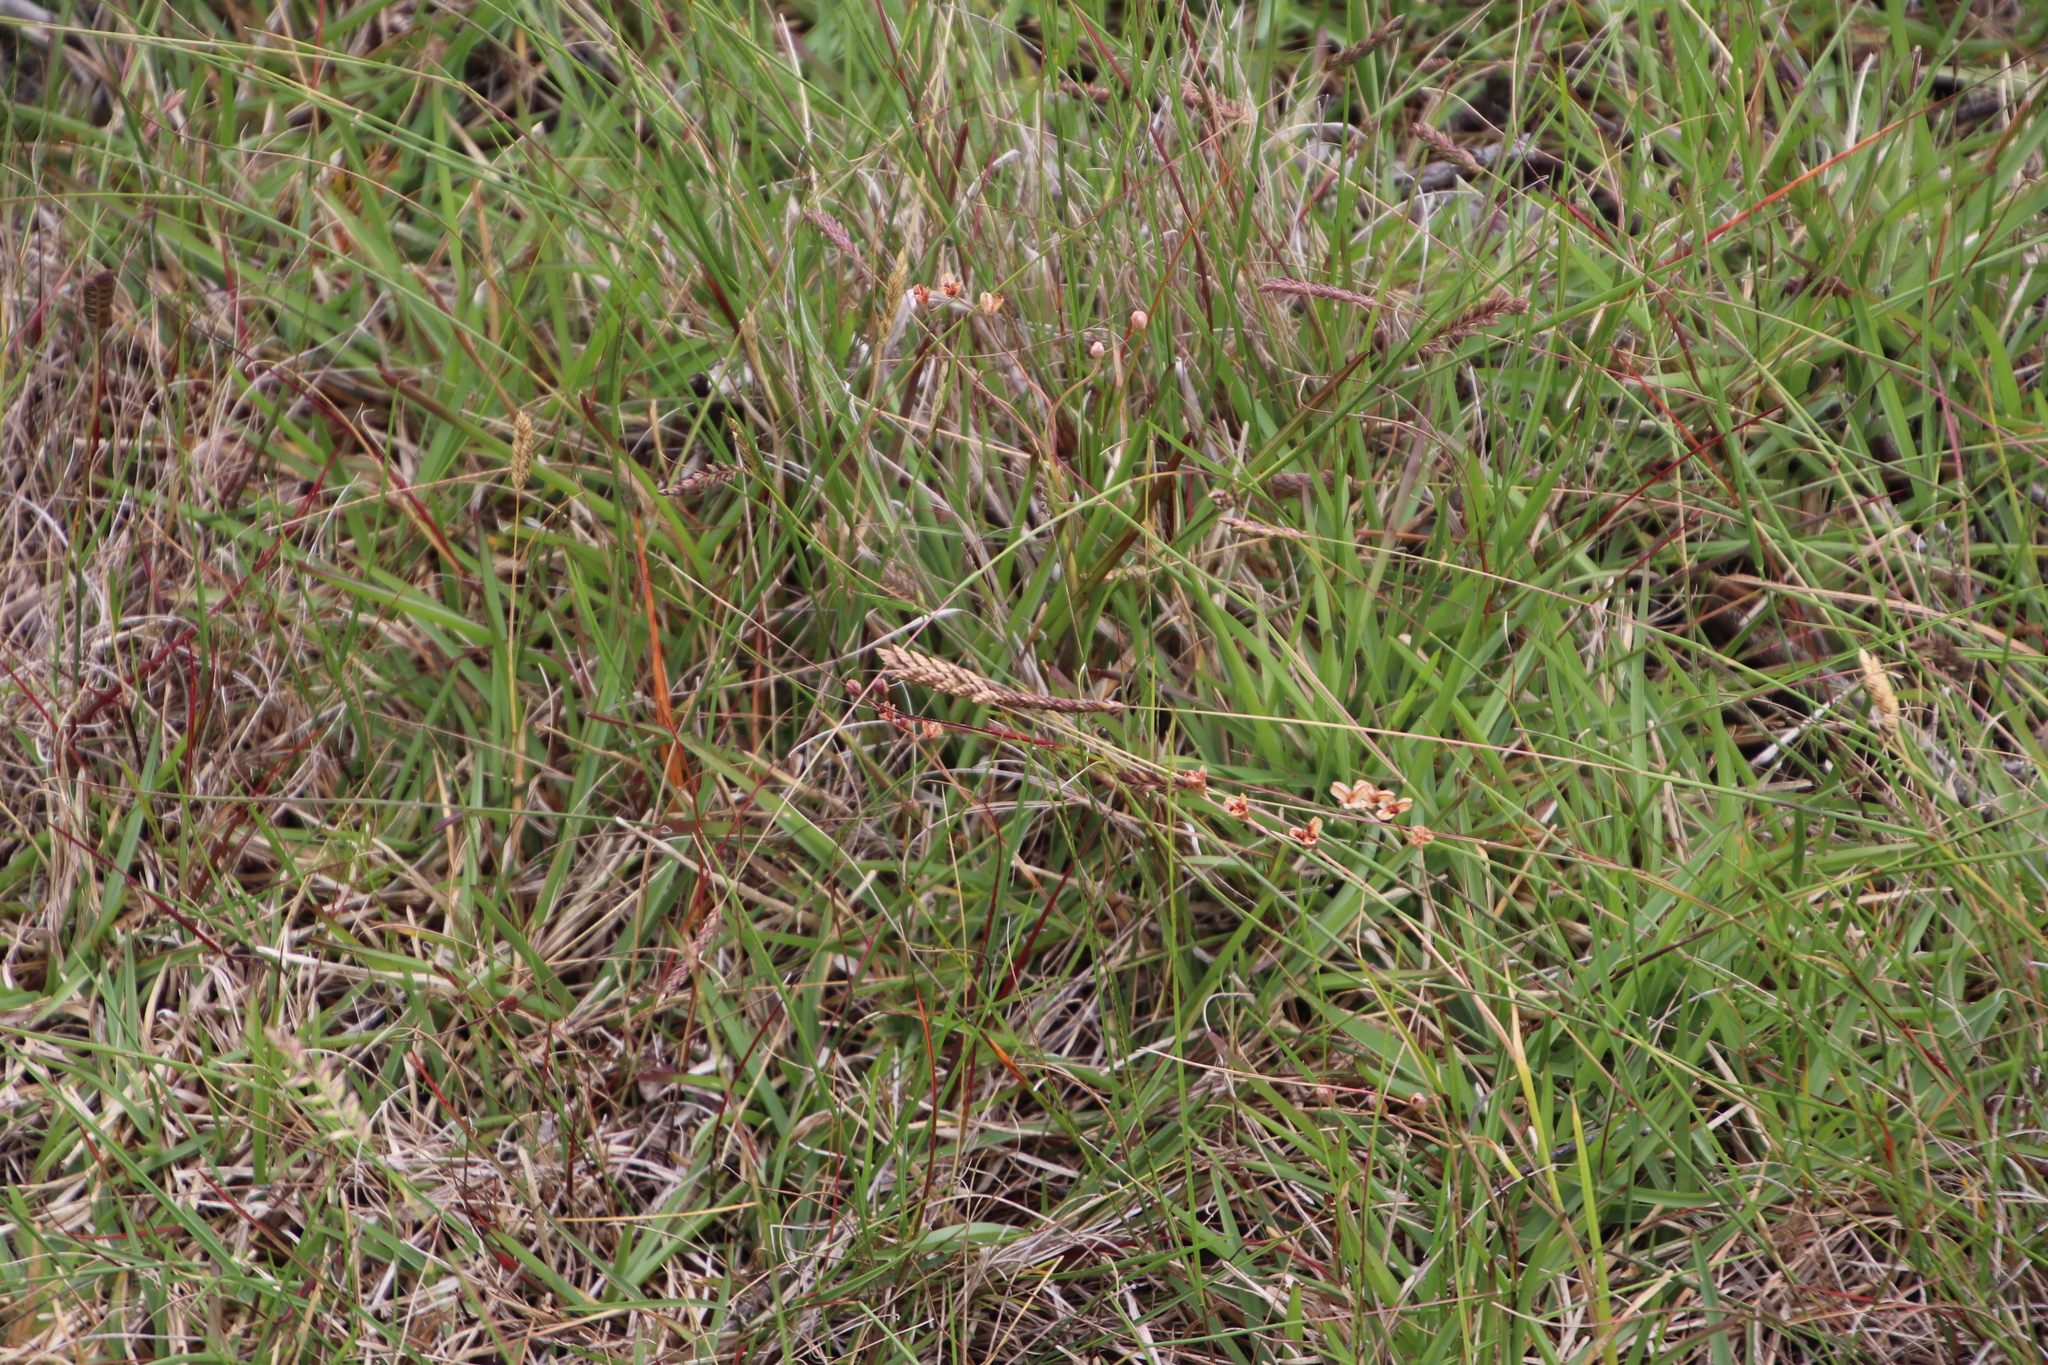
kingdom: Plantae
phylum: Tracheophyta
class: Liliopsida
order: Poales
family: Poaceae
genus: Tribolium
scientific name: Tribolium uniolae
